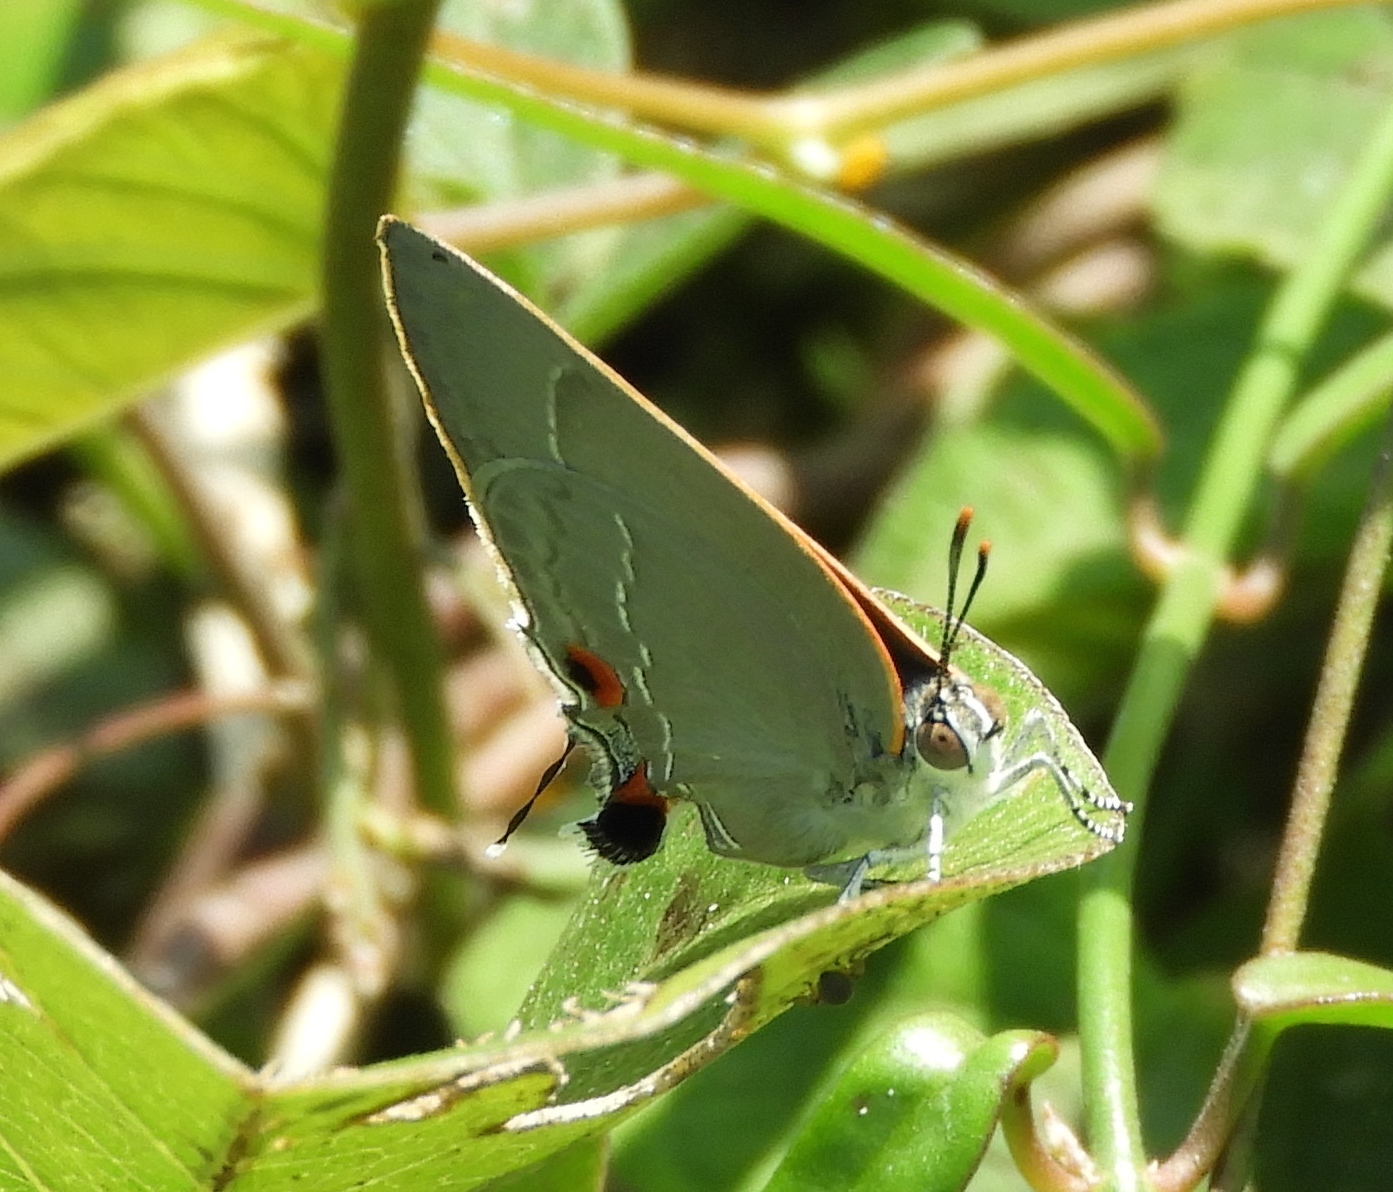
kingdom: Animalia
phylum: Arthropoda
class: Insecta
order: Lepidoptera
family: Lycaenidae
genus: Thecla
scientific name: Thecla marius
